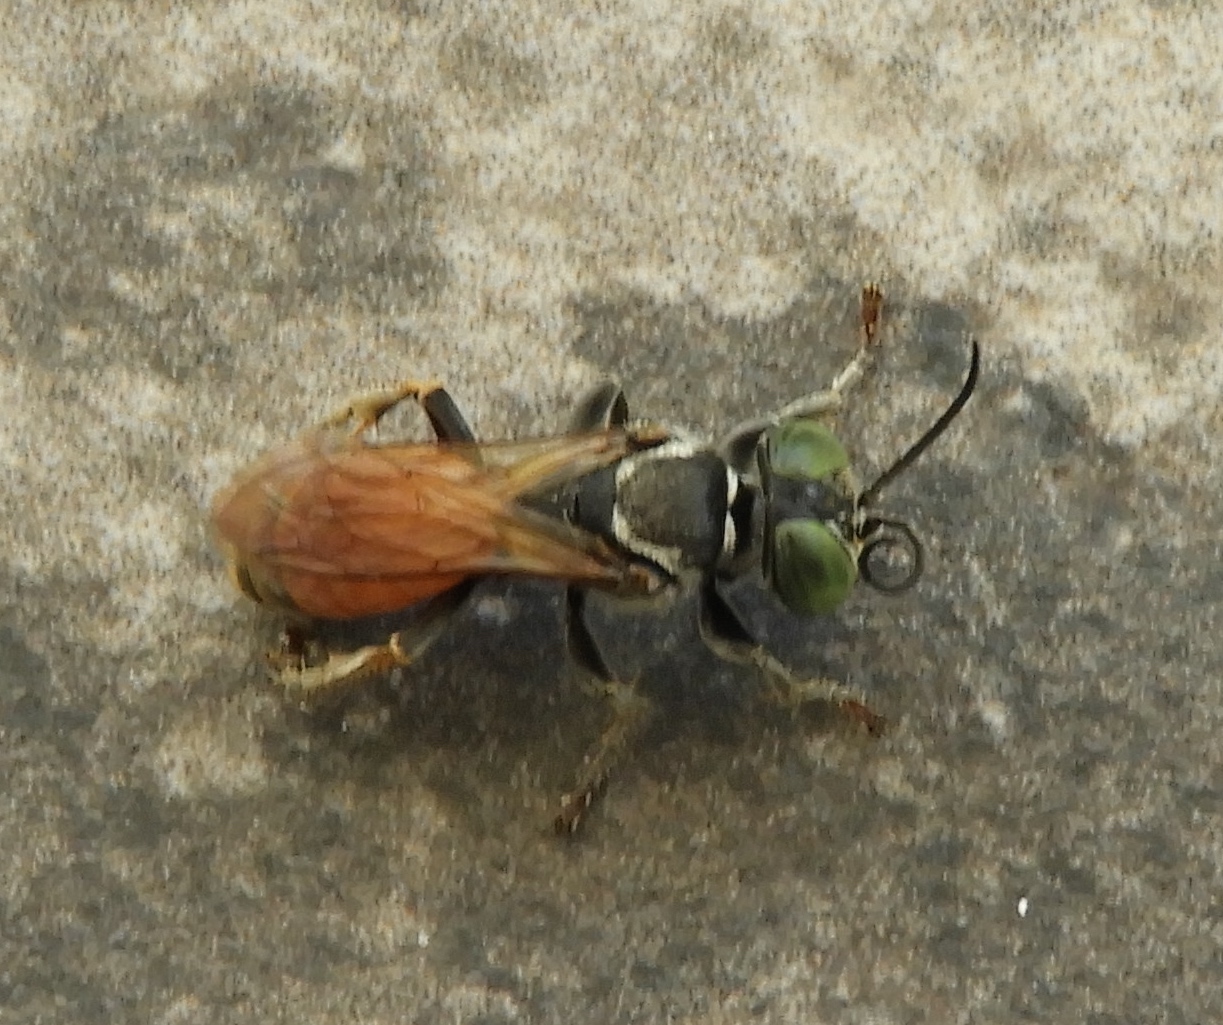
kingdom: Animalia
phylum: Arthropoda
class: Insecta
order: Hymenoptera
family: Crabronidae
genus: Tachytes
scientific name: Tachytes
